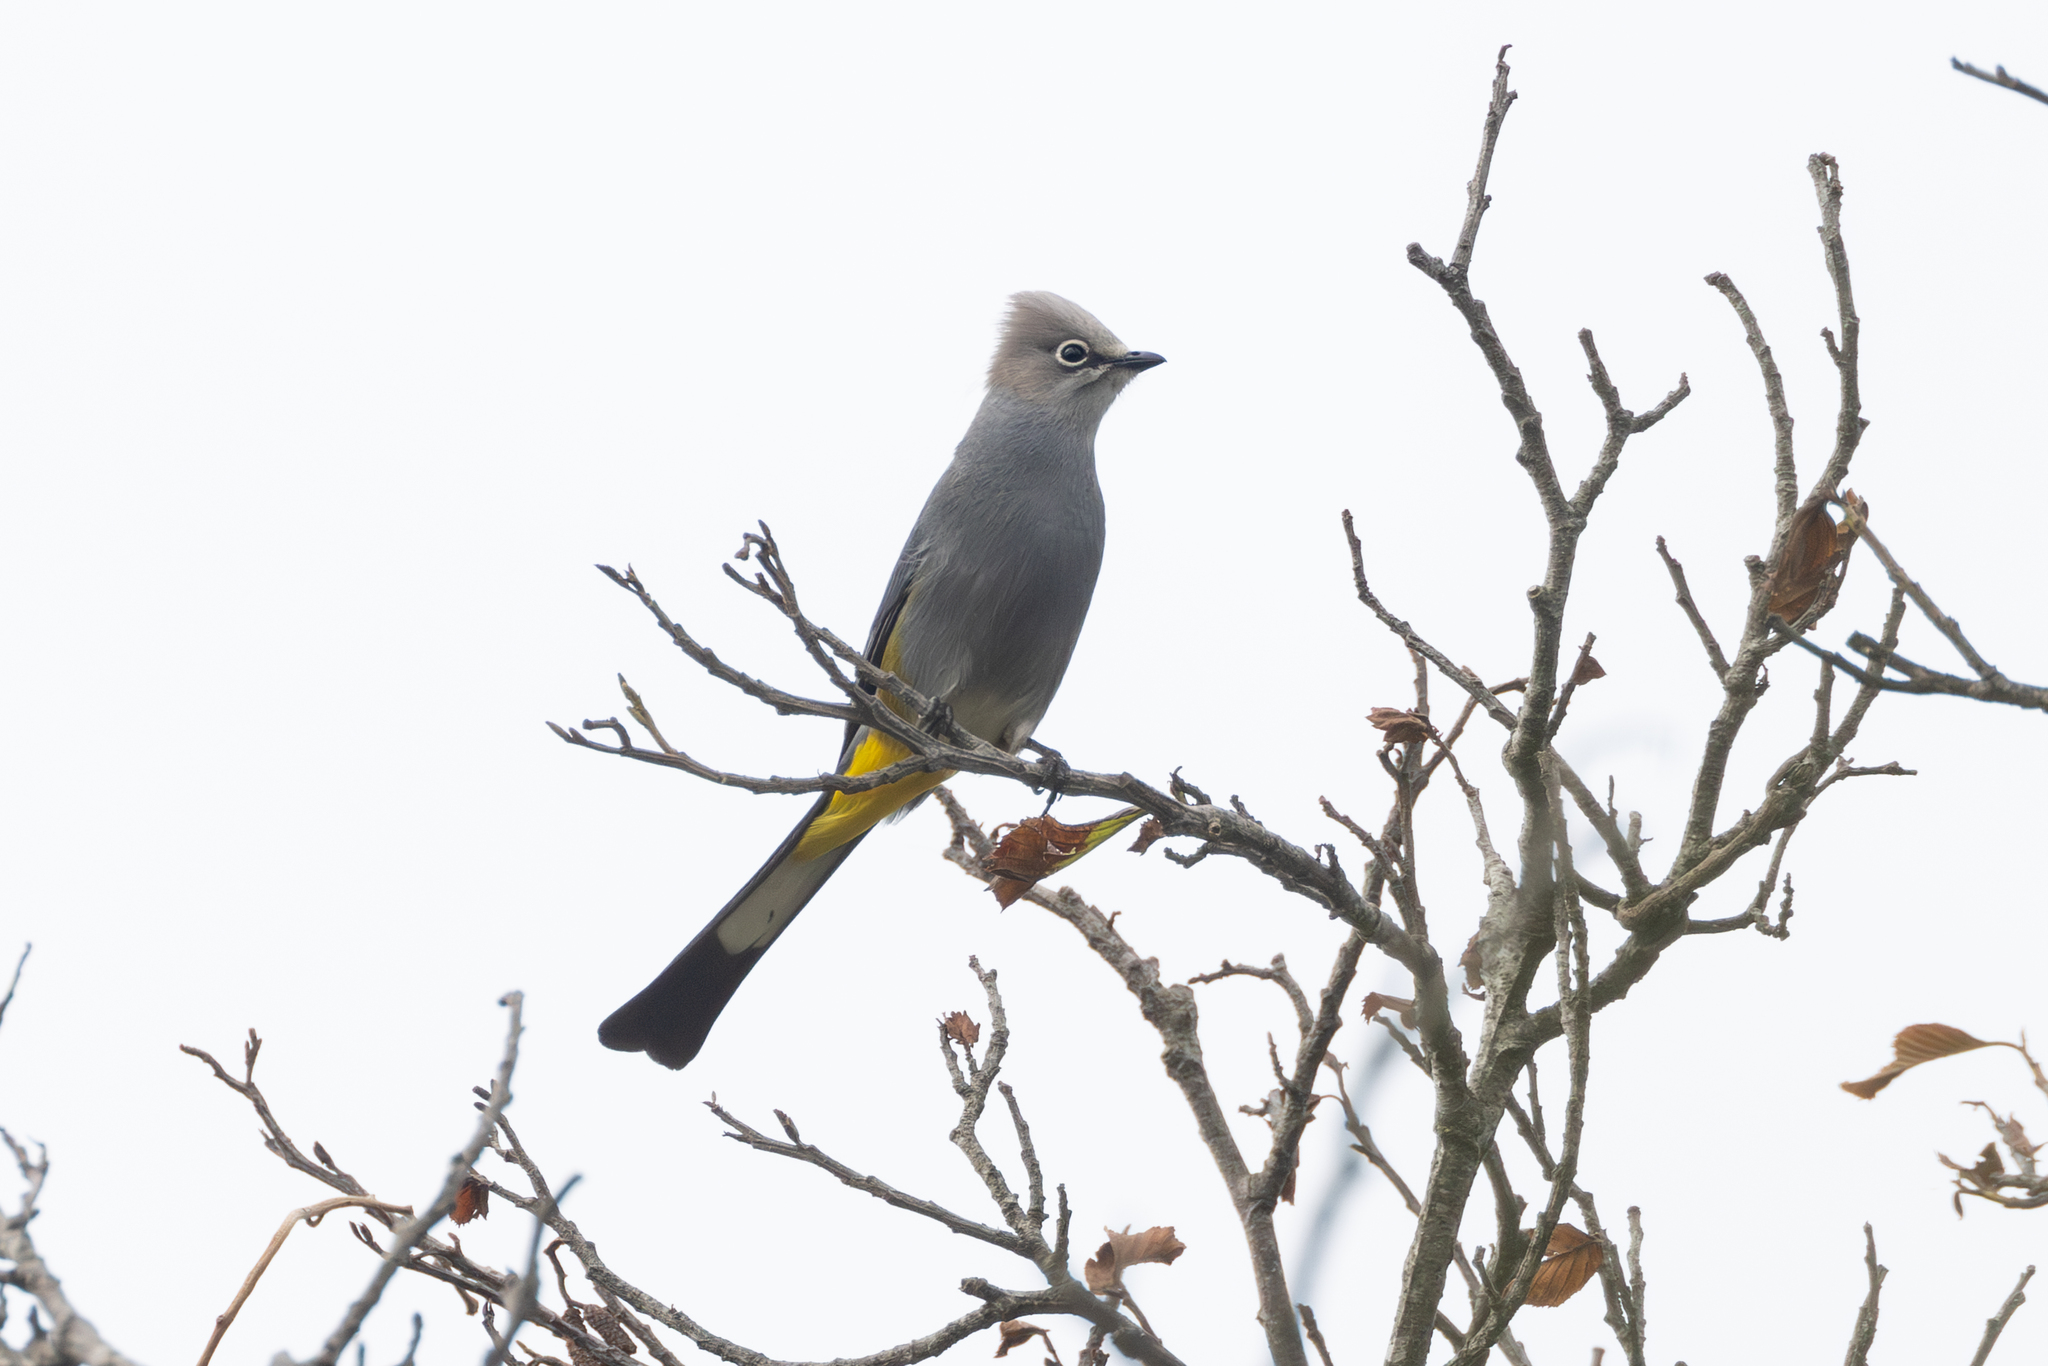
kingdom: Animalia
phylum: Chordata
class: Aves
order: Passeriformes
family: Ptilogonatidae
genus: Ptilogonys
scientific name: Ptilogonys cinereus
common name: Gray silky-flycatcher
